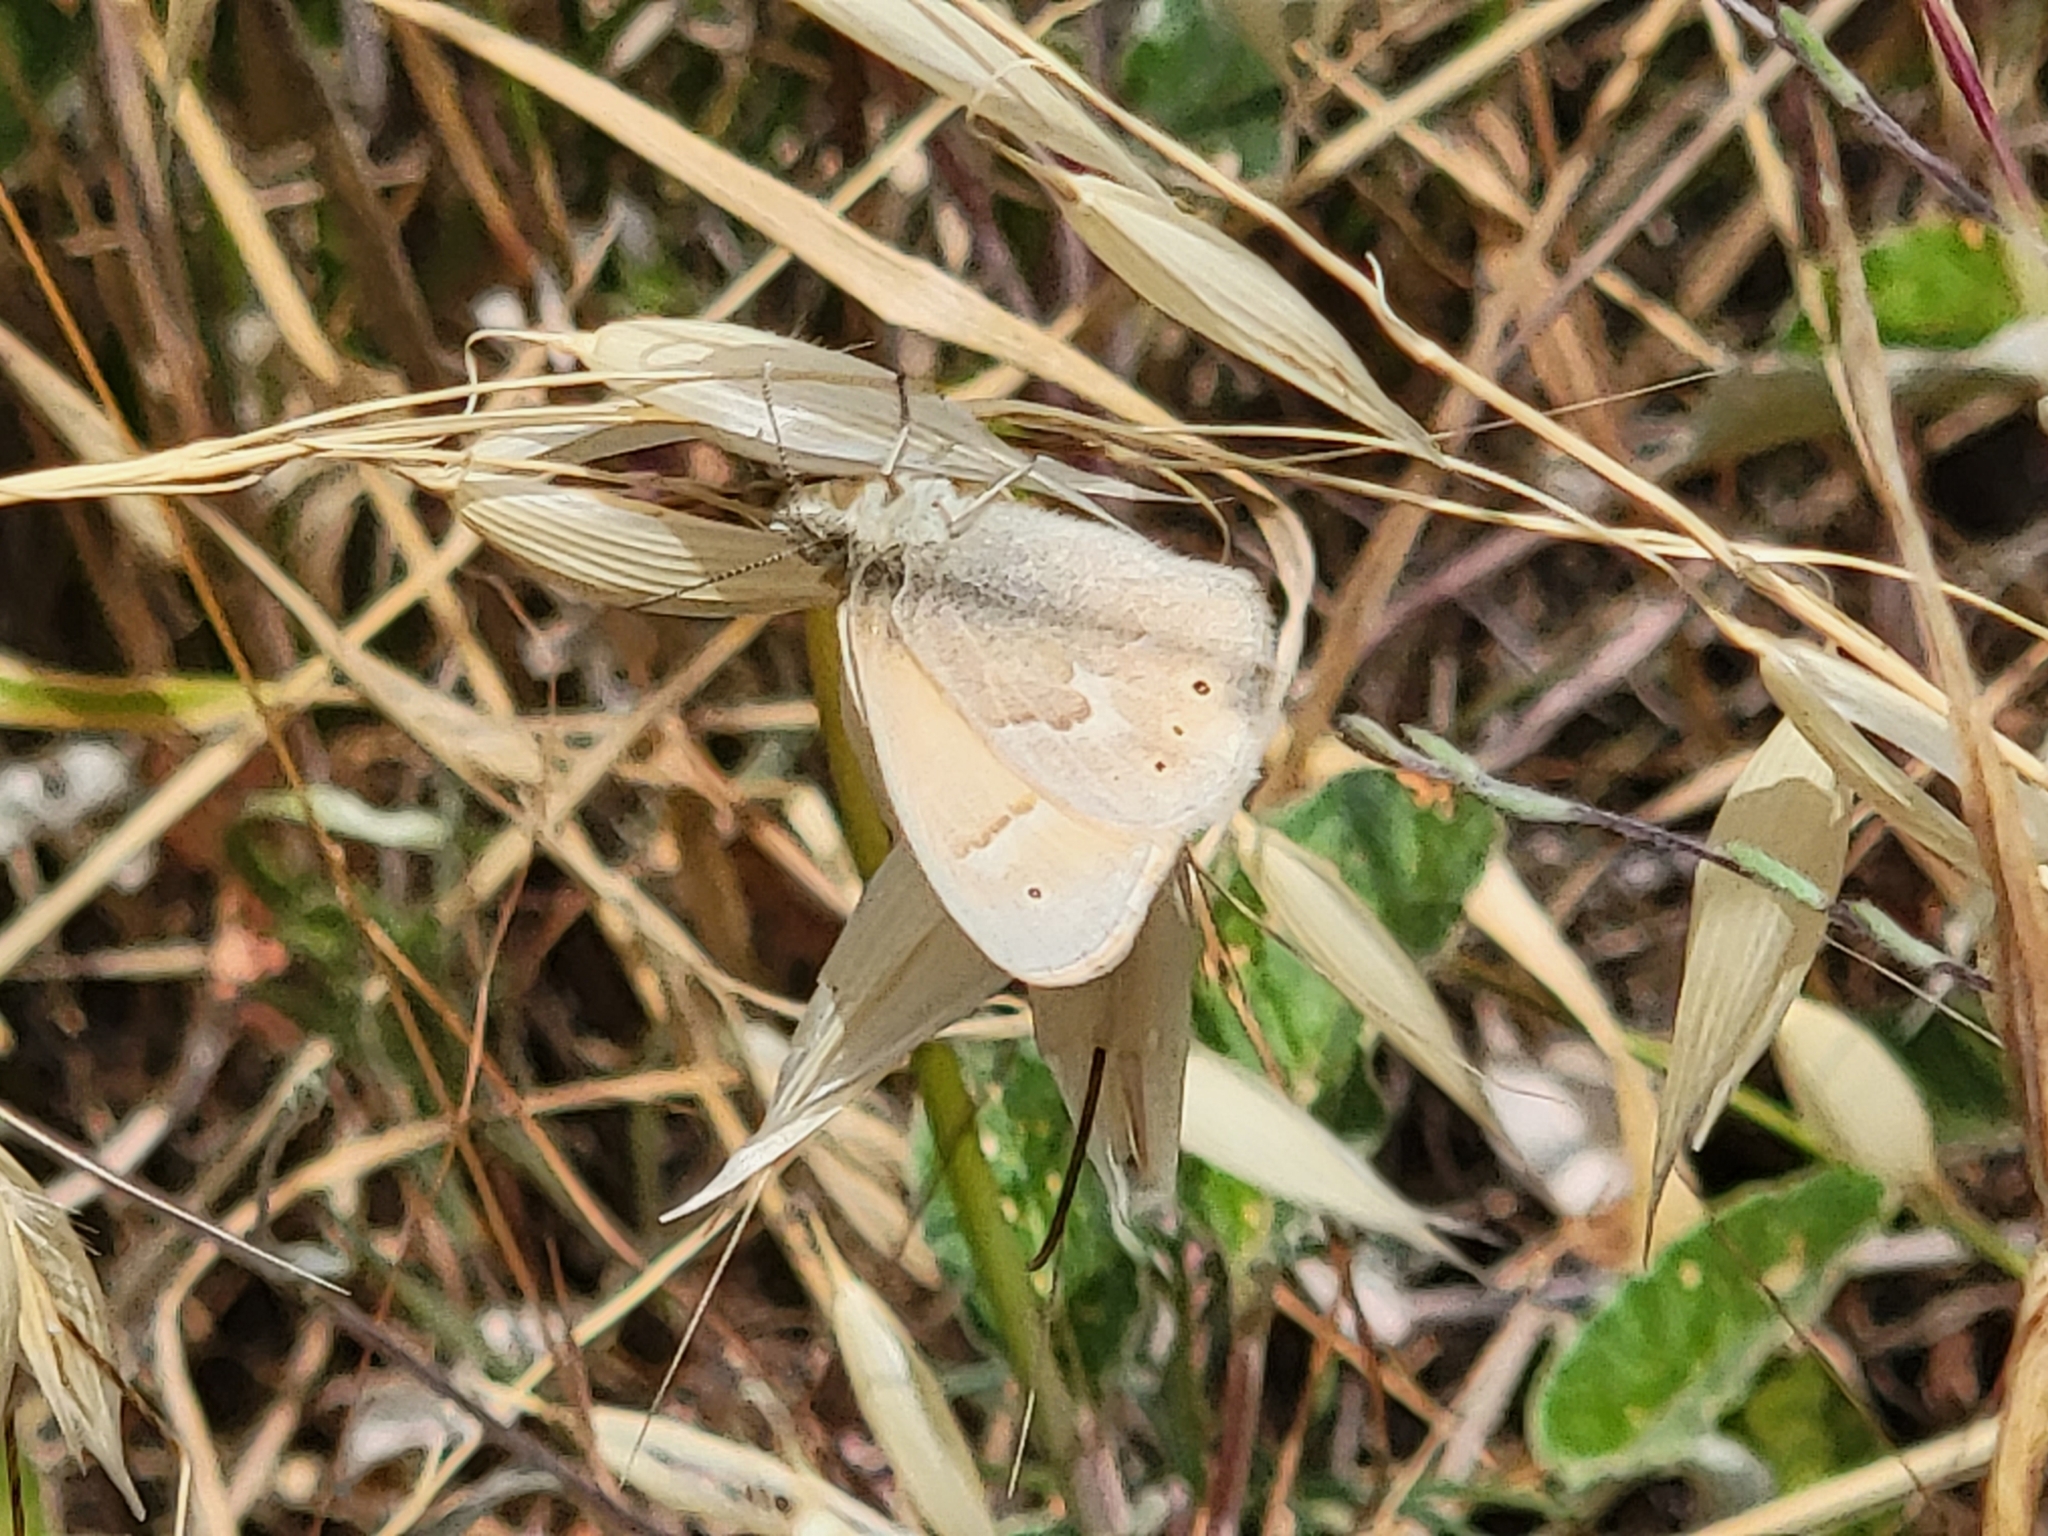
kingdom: Animalia
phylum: Arthropoda
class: Insecta
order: Lepidoptera
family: Nymphalidae
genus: Coenonympha
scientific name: Coenonympha california
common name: Common ringlet
